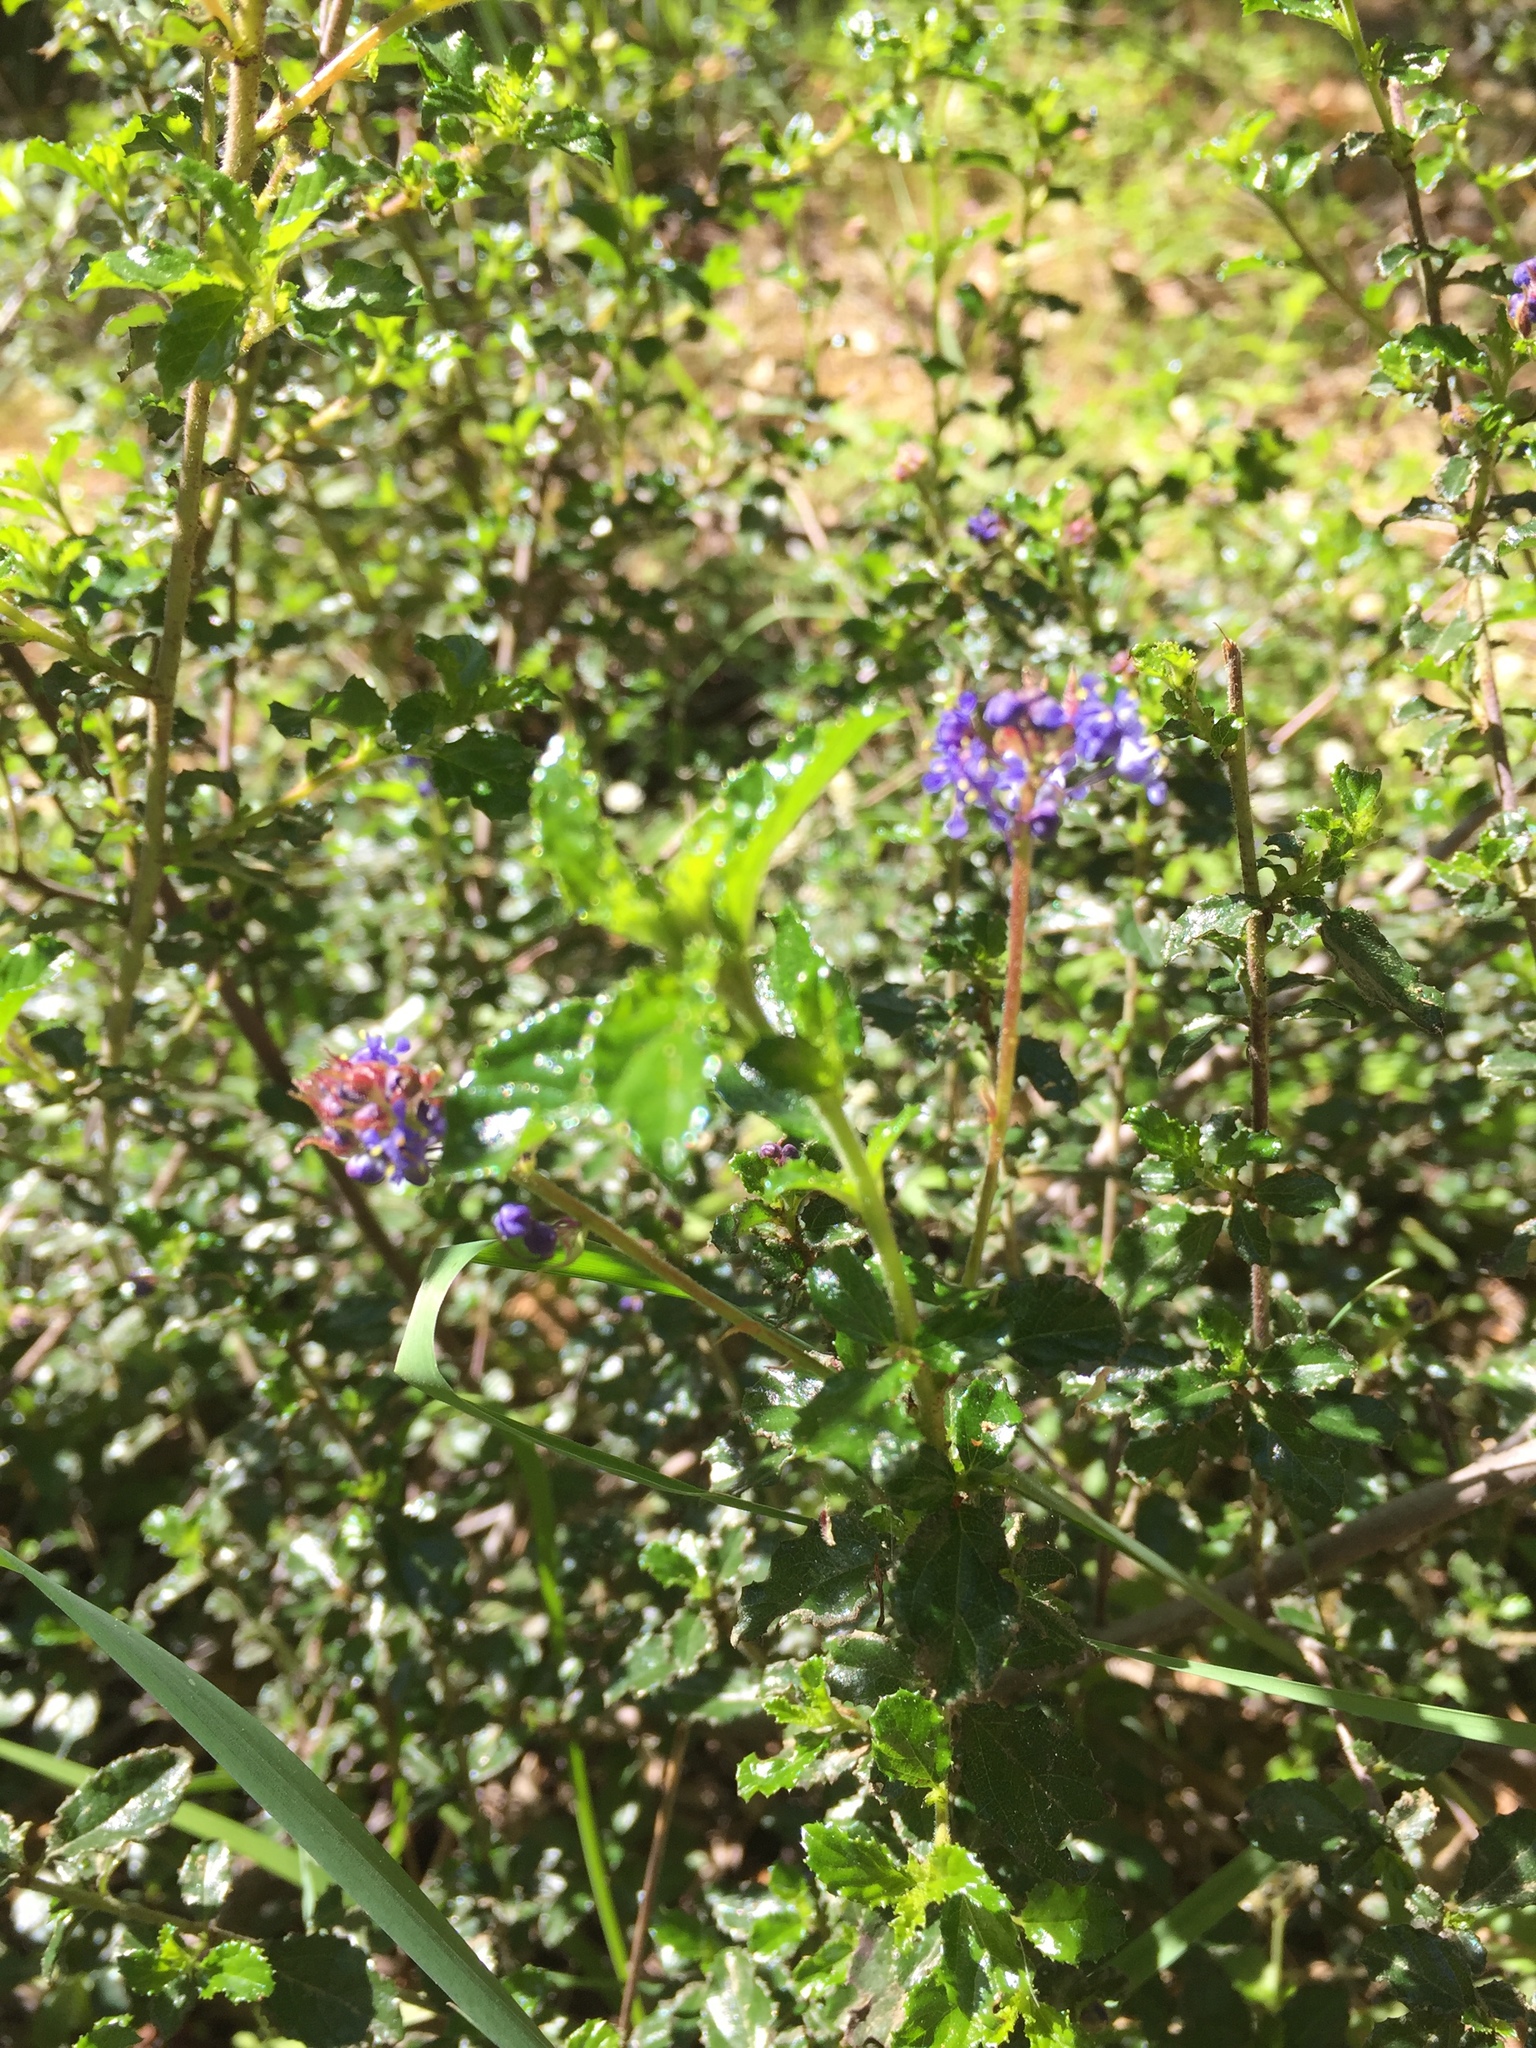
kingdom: Plantae
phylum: Tracheophyta
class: Magnoliopsida
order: Rosales
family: Rhamnaceae
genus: Ceanothus
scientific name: Ceanothus foliosus
